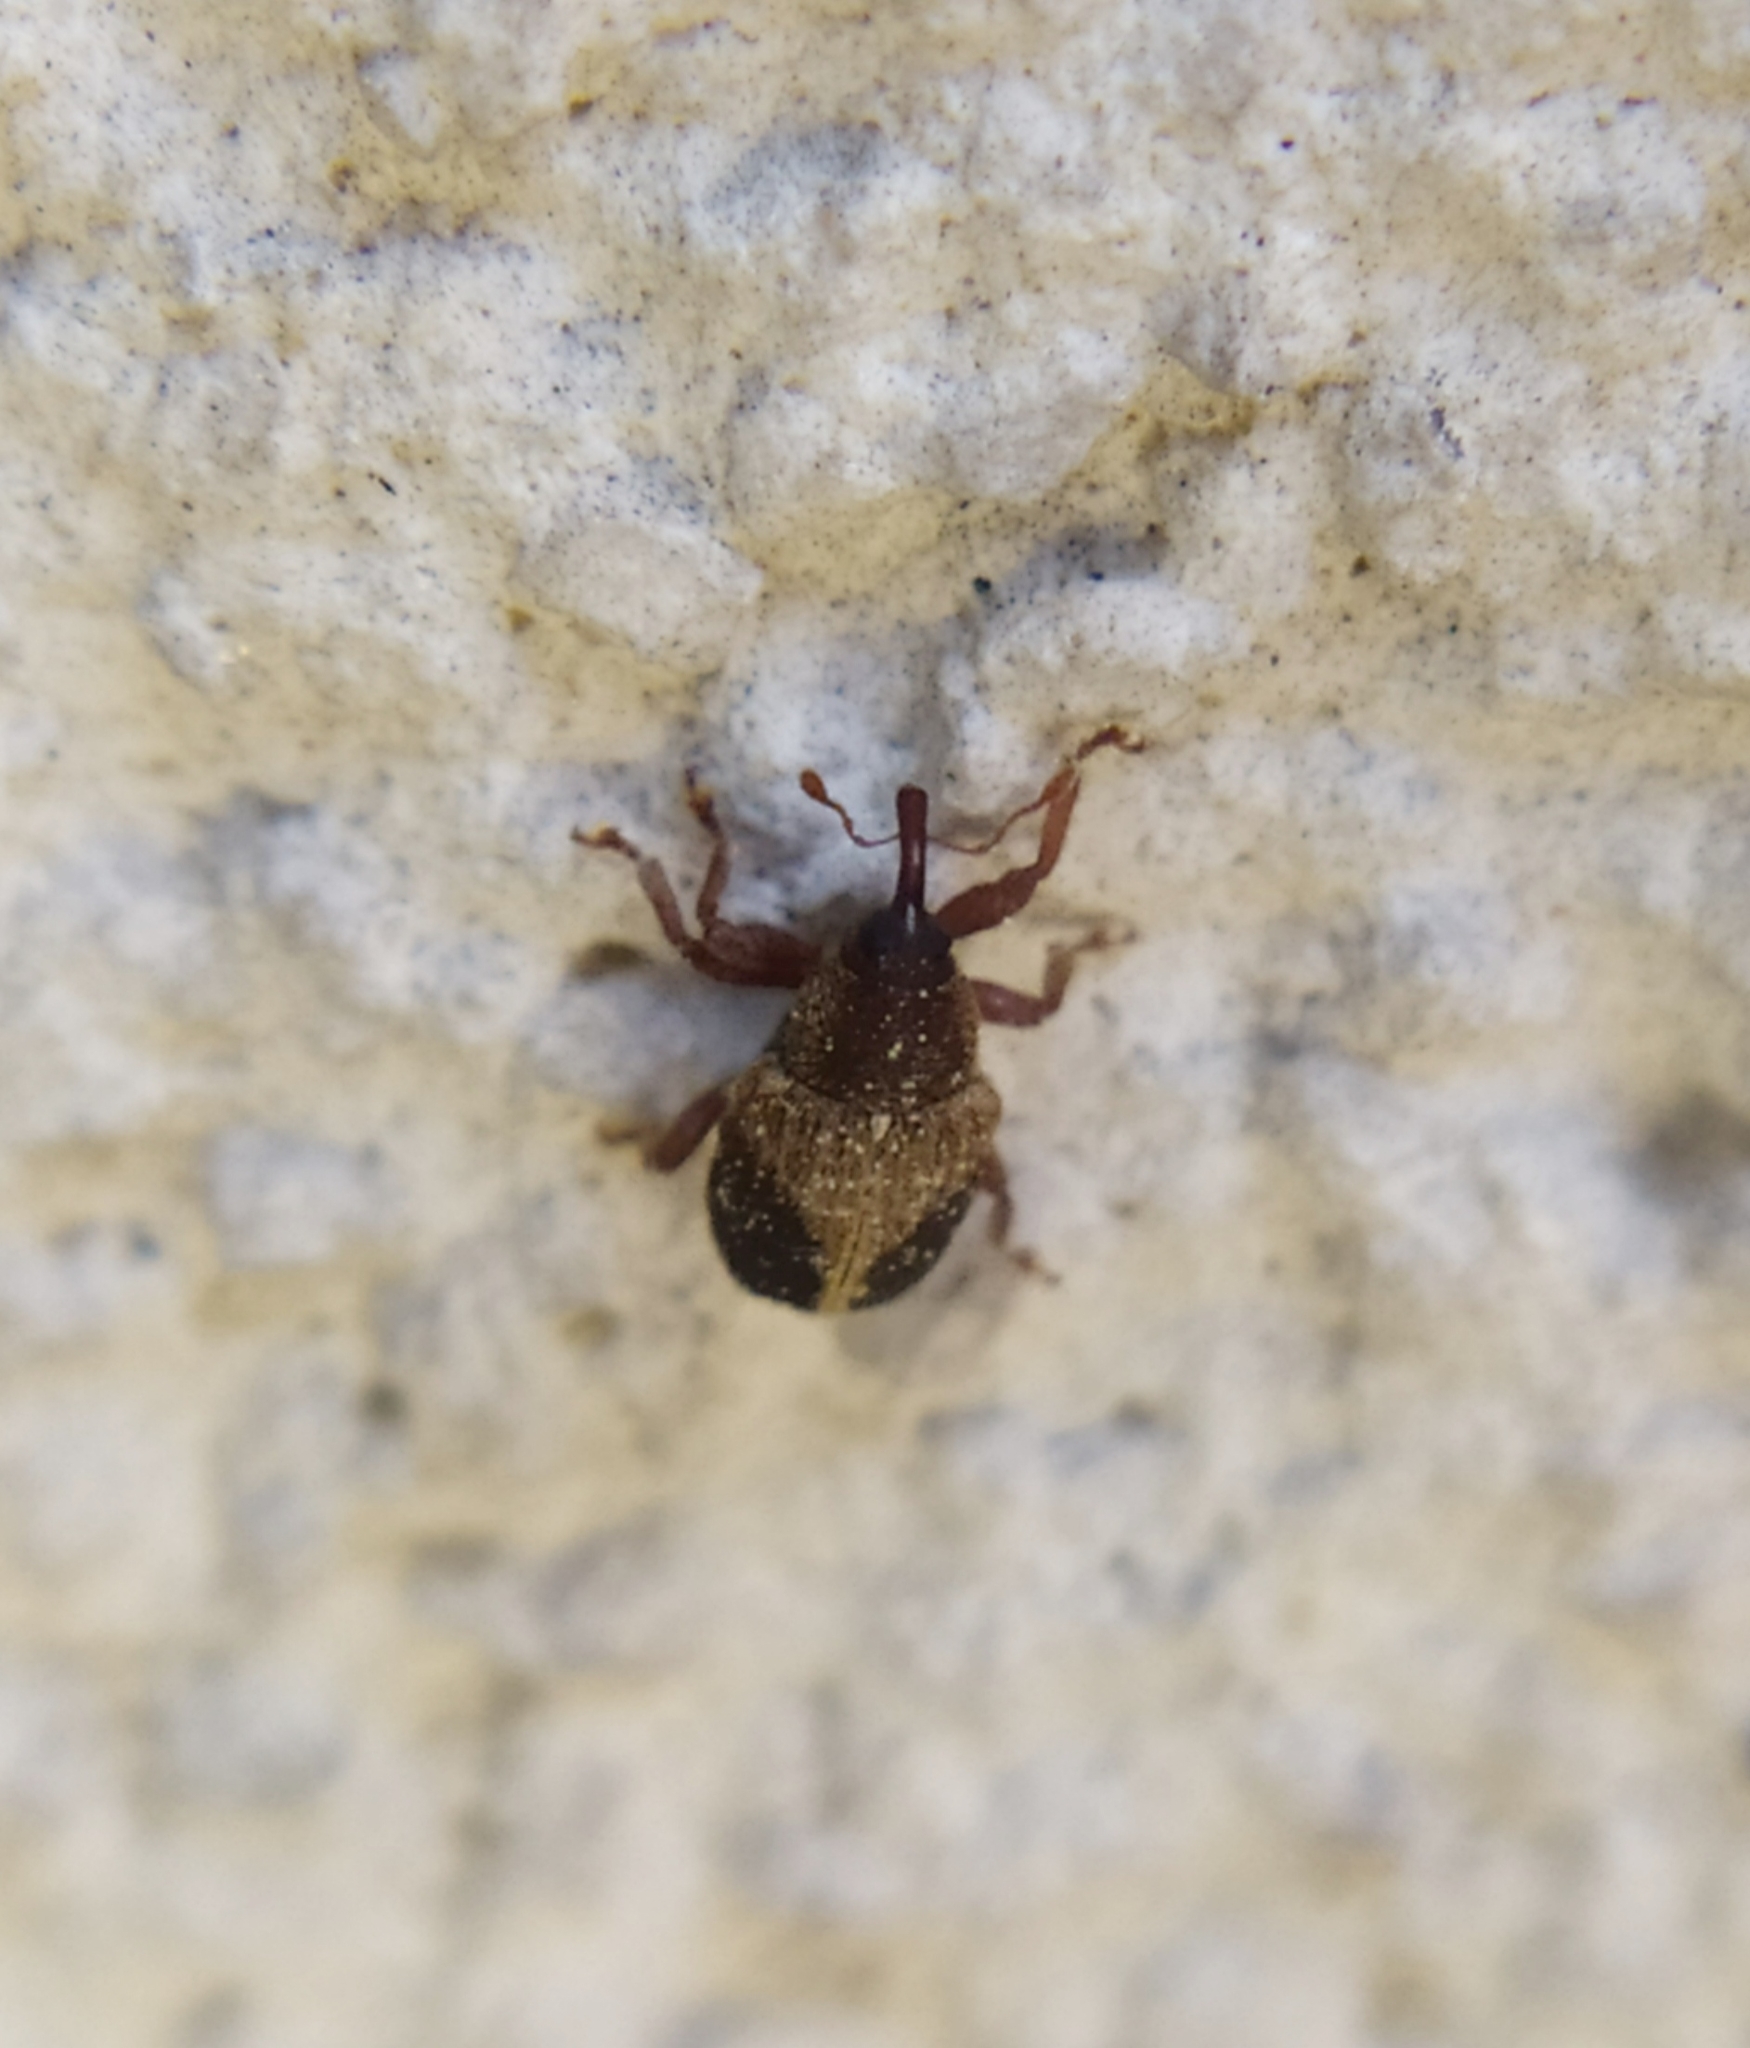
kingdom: Animalia
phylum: Arthropoda
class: Insecta
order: Coleoptera
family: Curculionidae
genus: Lignyodes
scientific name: Lignyodes enucleator
